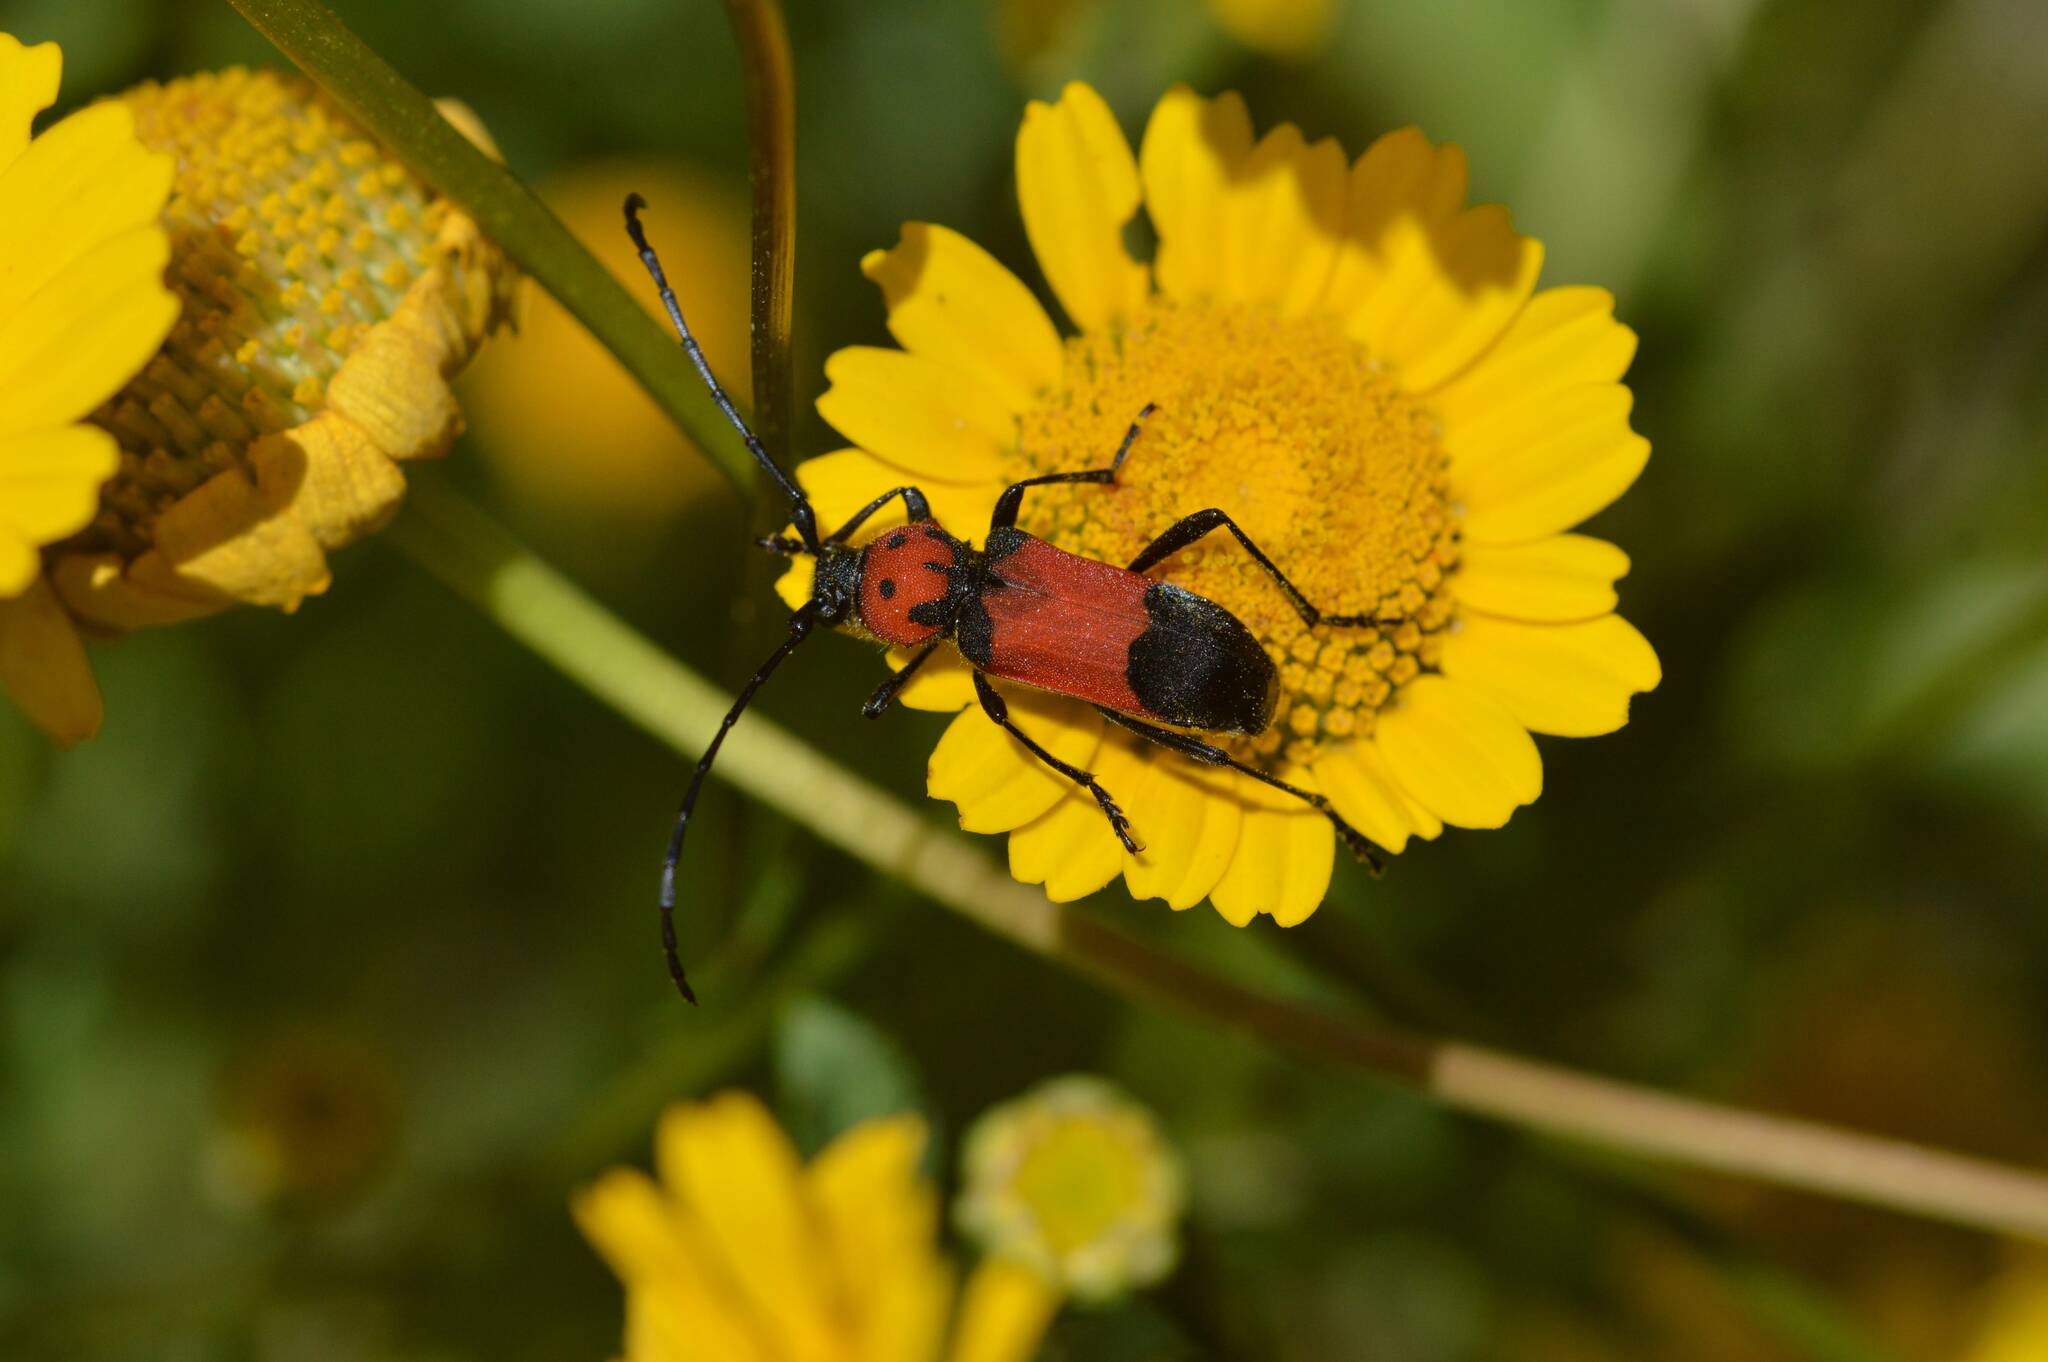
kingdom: Animalia
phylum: Arthropoda
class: Insecta
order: Coleoptera
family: Cerambycidae
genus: Purpuricenus
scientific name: Purpuricenus desfontainii
